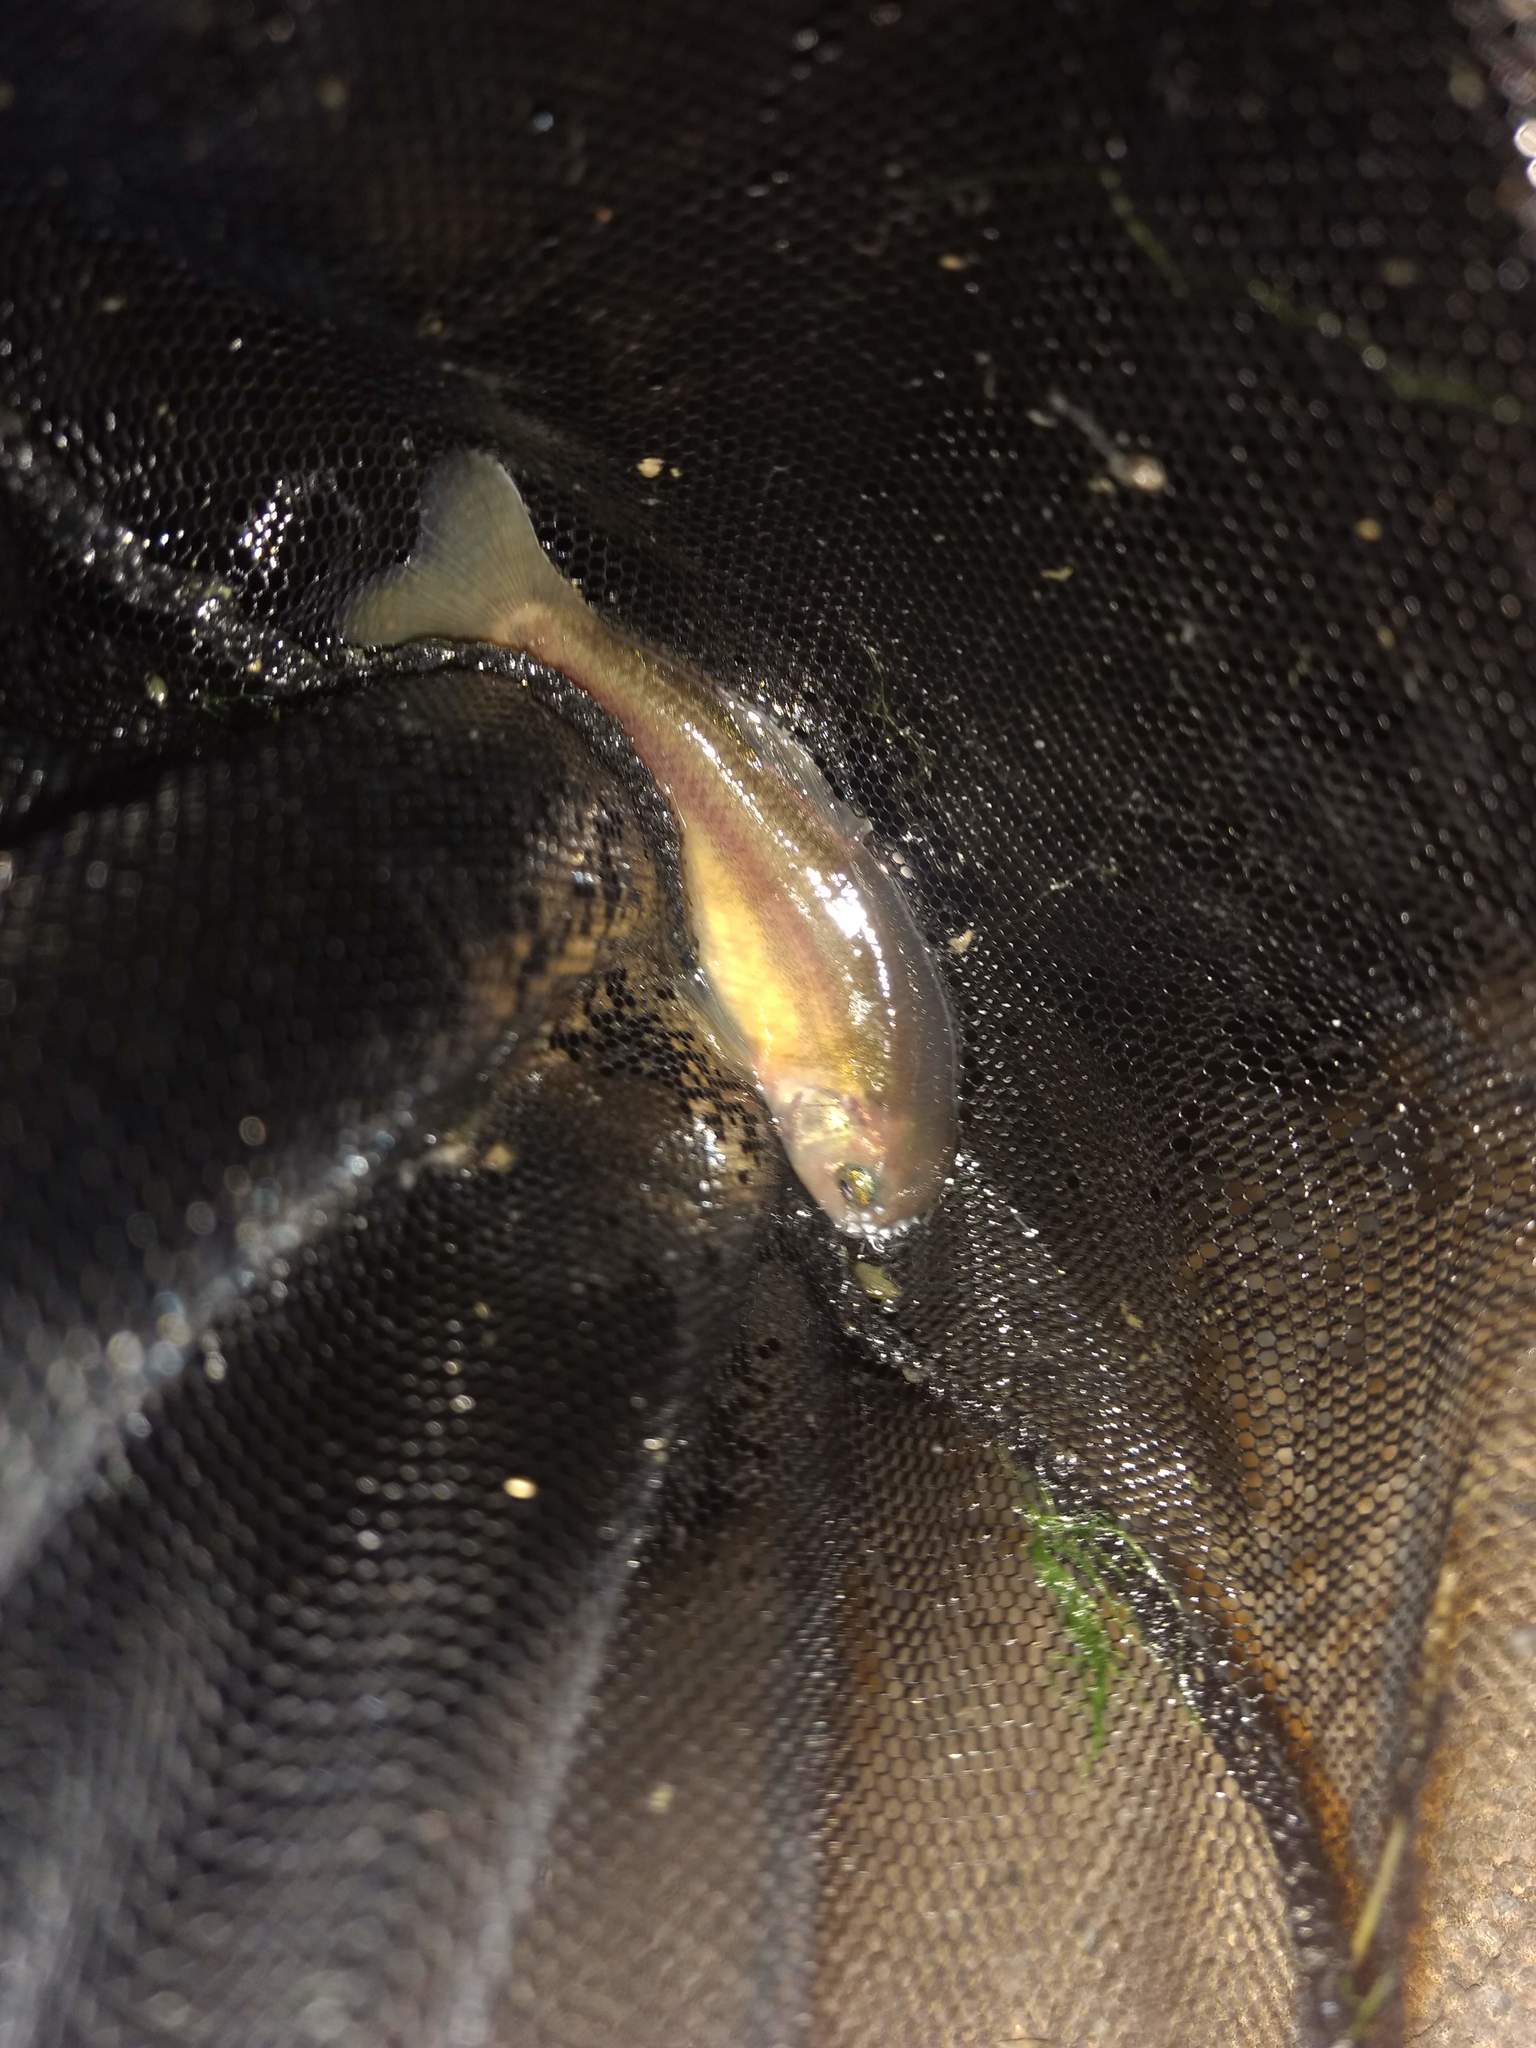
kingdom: Animalia
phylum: Chordata
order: Cypriniformes
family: Cyprinidae
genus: Pimephales
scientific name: Pimephales promelas
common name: Fathead minnow
